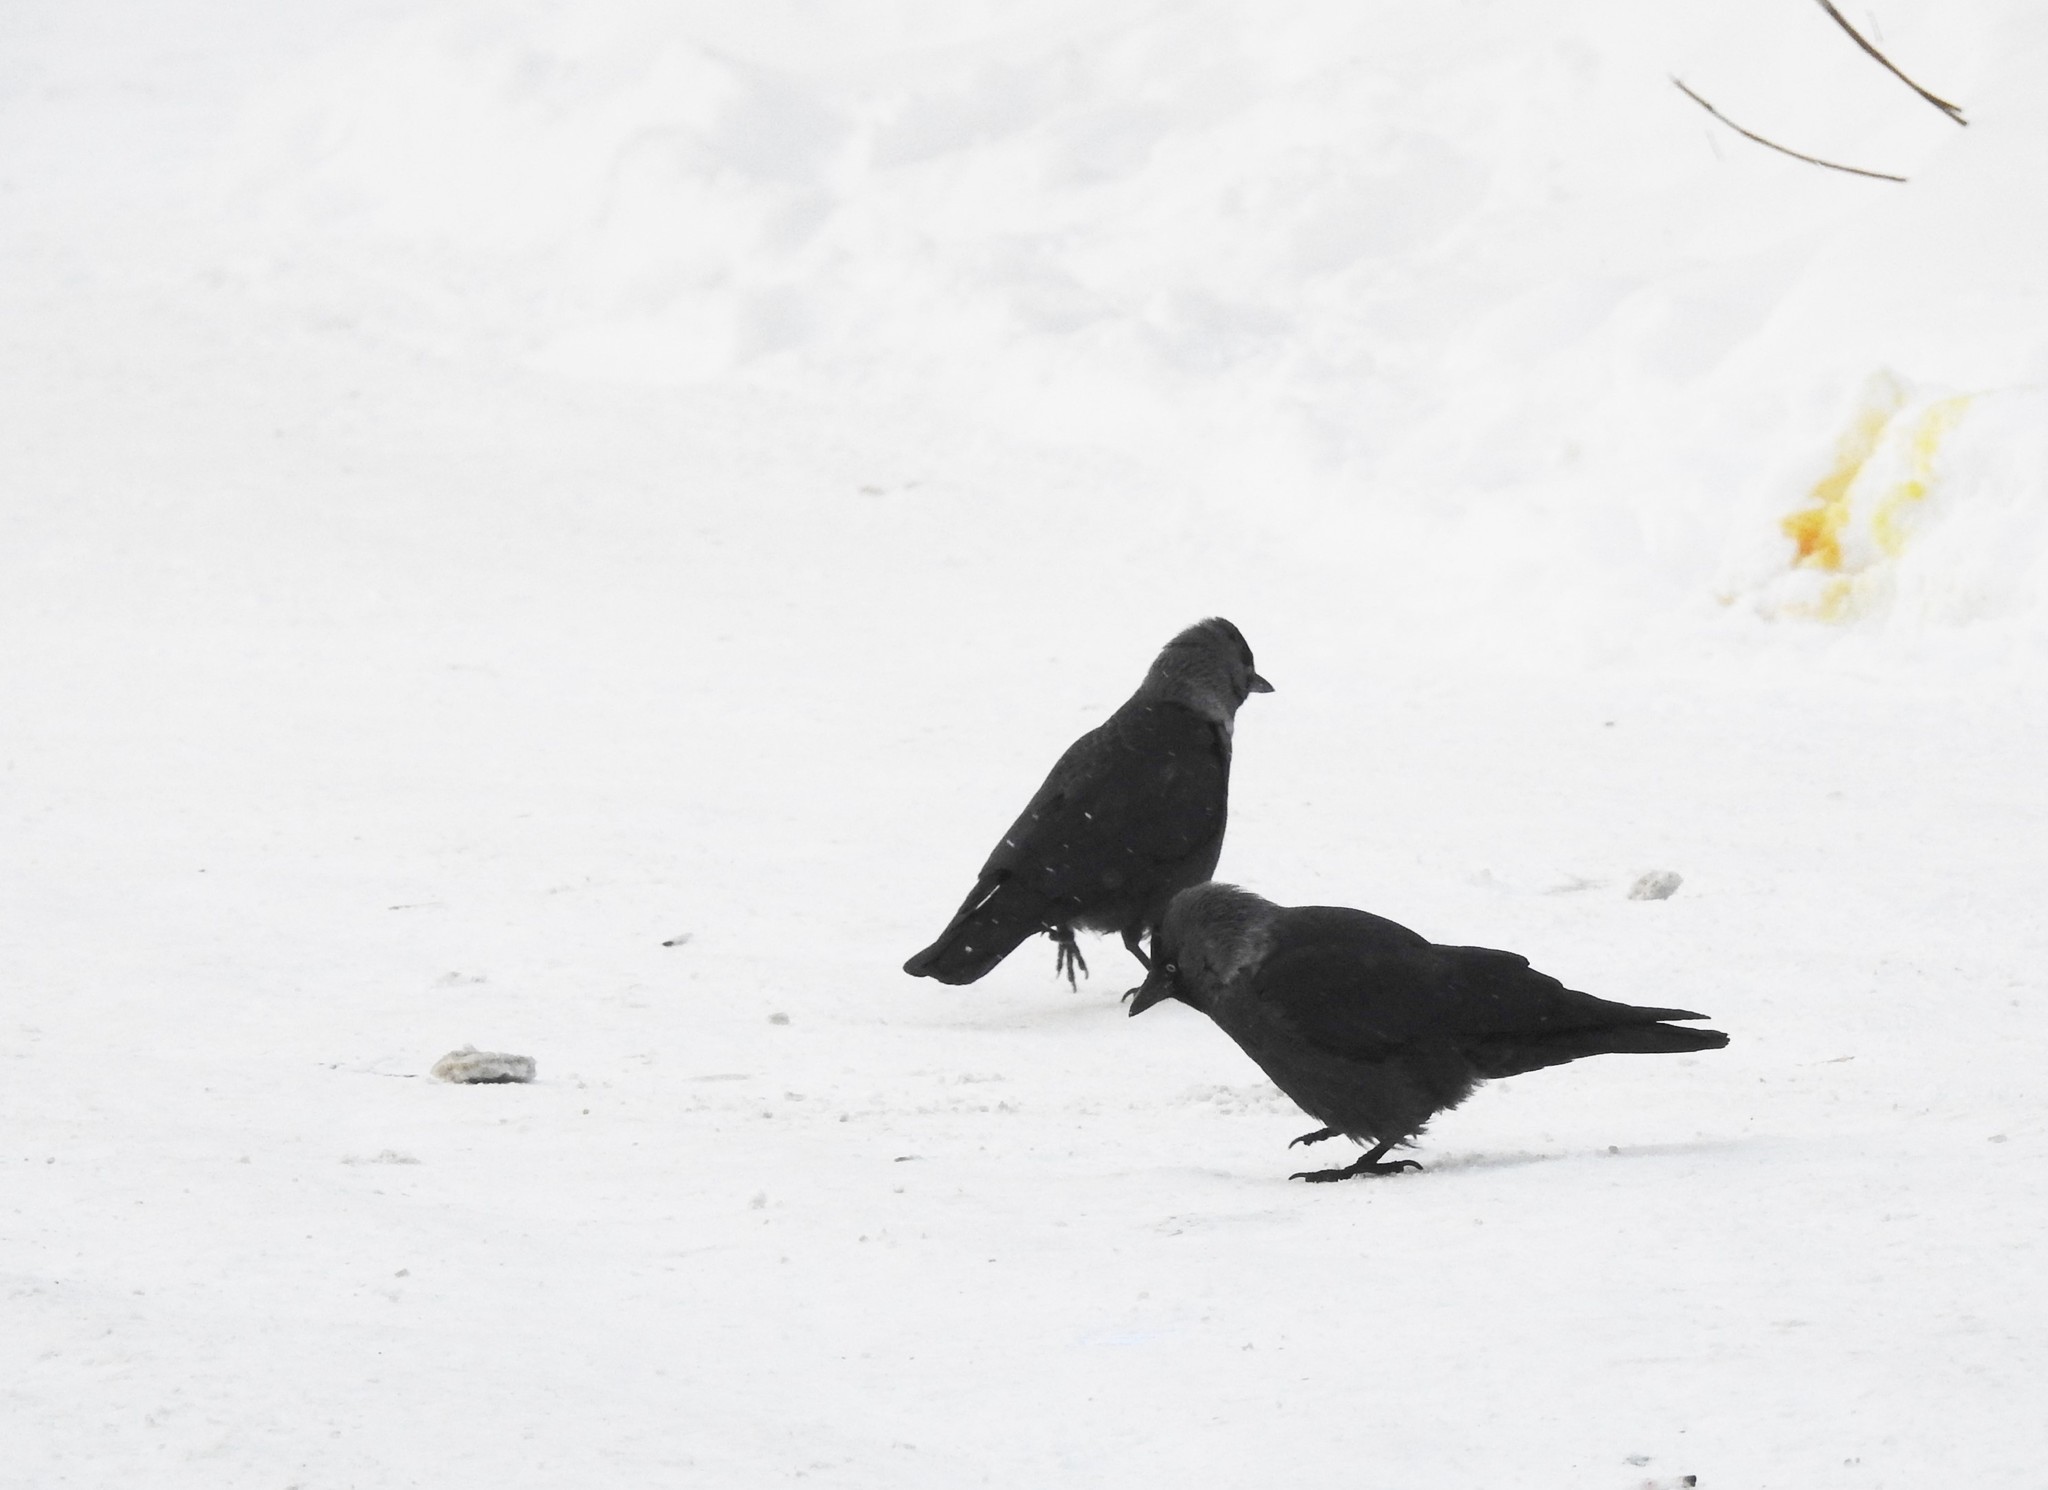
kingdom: Animalia
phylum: Chordata
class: Aves
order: Passeriformes
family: Corvidae
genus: Coloeus
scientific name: Coloeus monedula
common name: Western jackdaw
